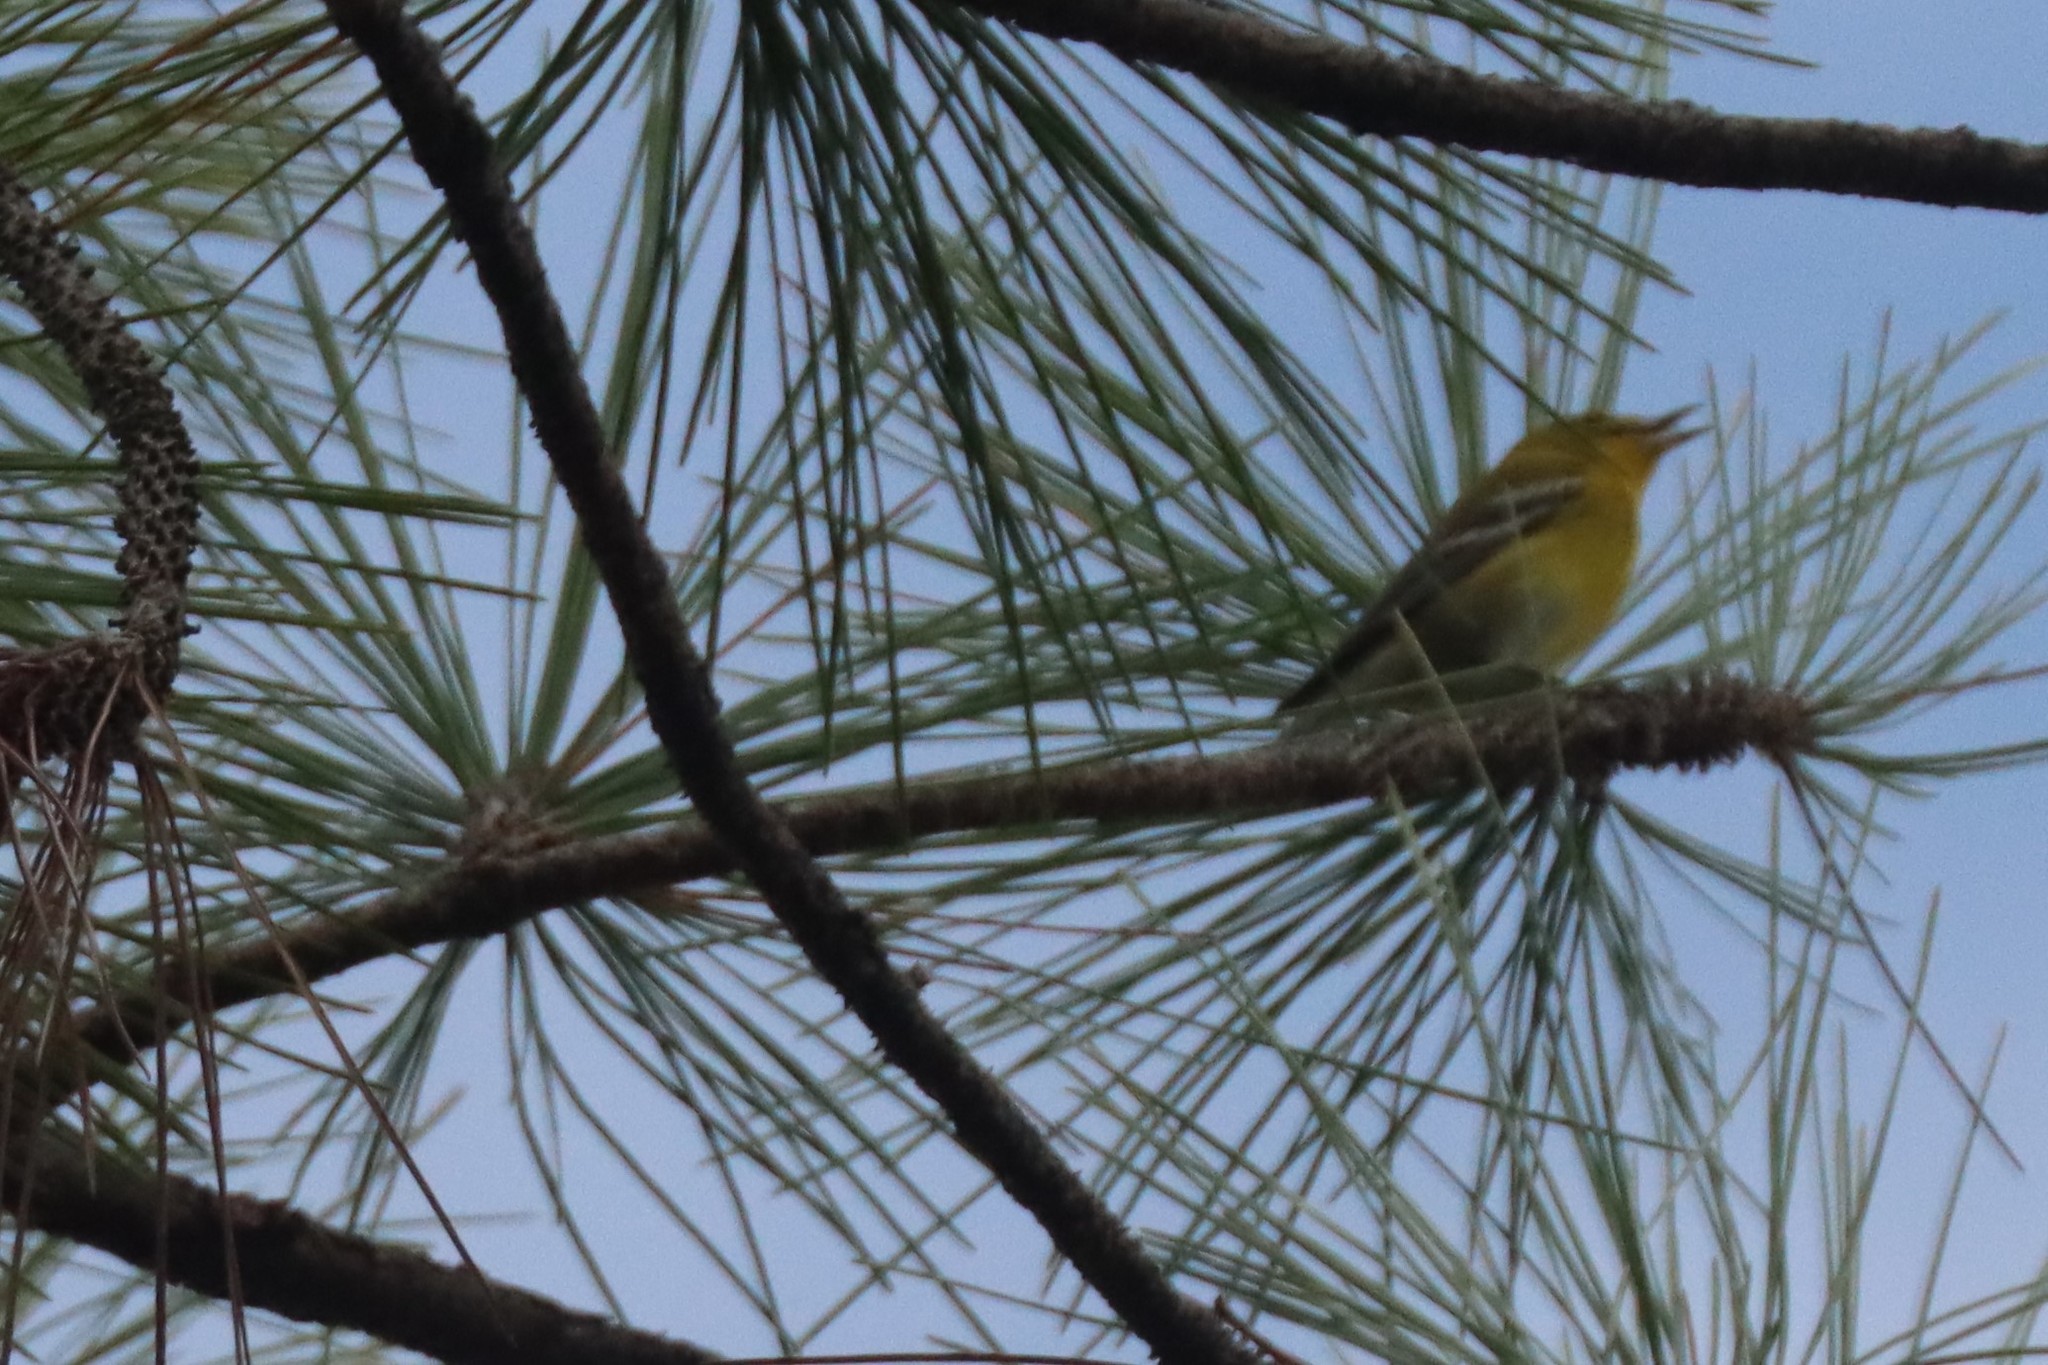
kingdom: Animalia
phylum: Chordata
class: Aves
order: Passeriformes
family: Parulidae
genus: Setophaga
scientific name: Setophaga pinus
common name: Pine warbler
